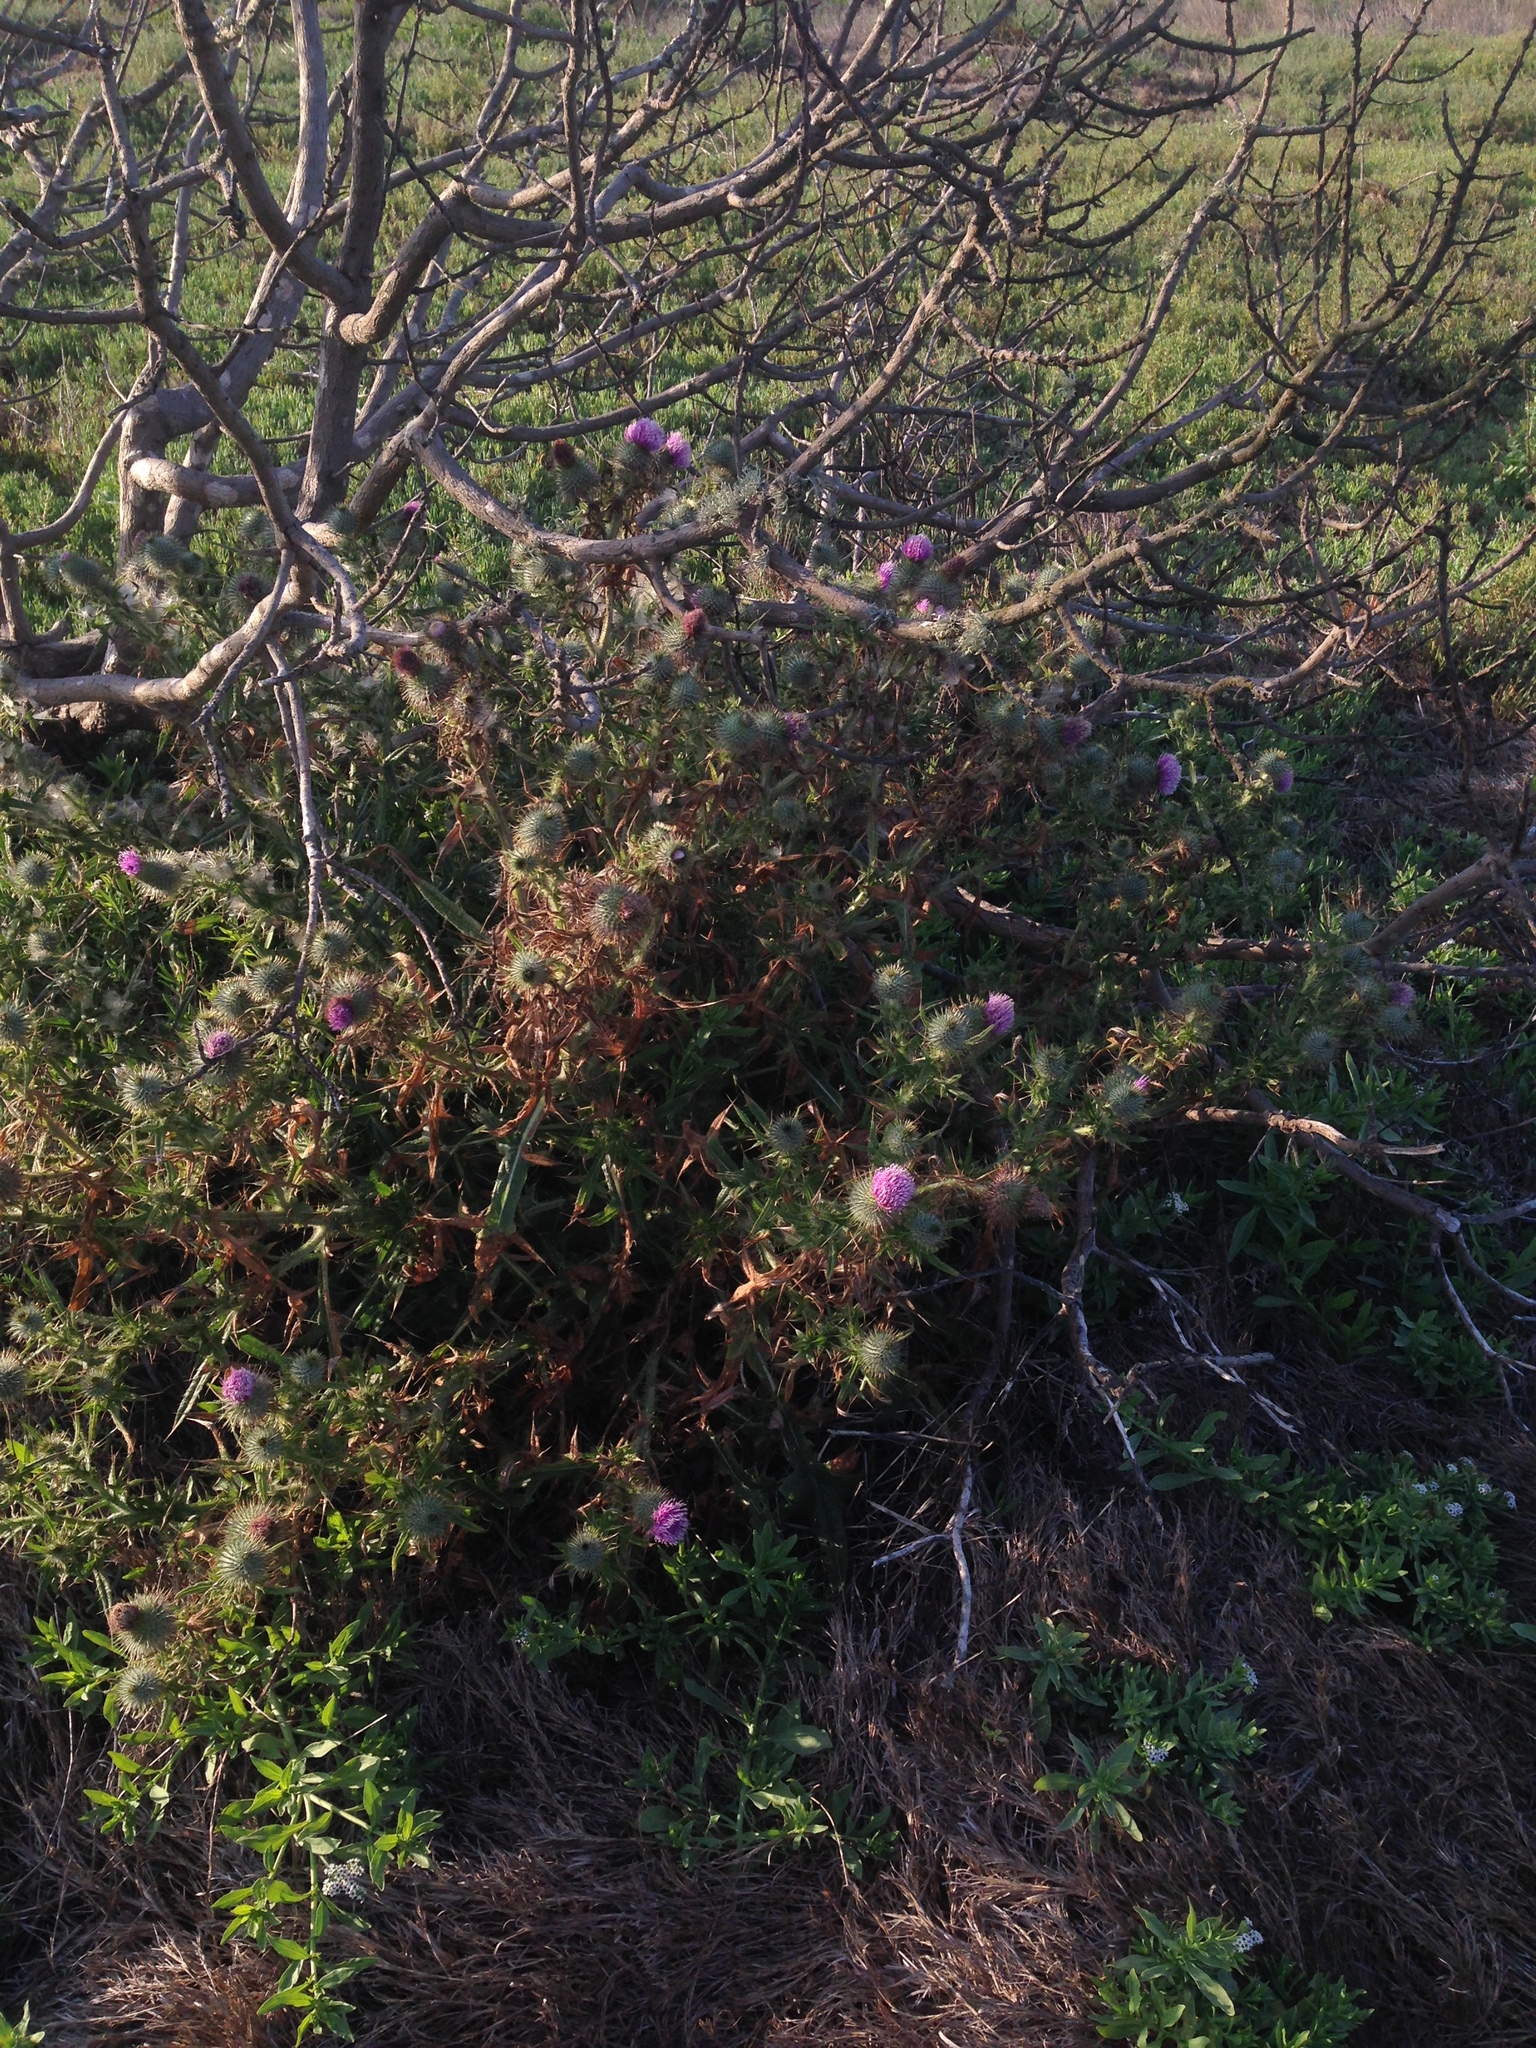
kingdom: Plantae
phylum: Tracheophyta
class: Magnoliopsida
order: Asterales
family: Asteraceae
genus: Cirsium
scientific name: Cirsium vulgare
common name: Bull thistle
